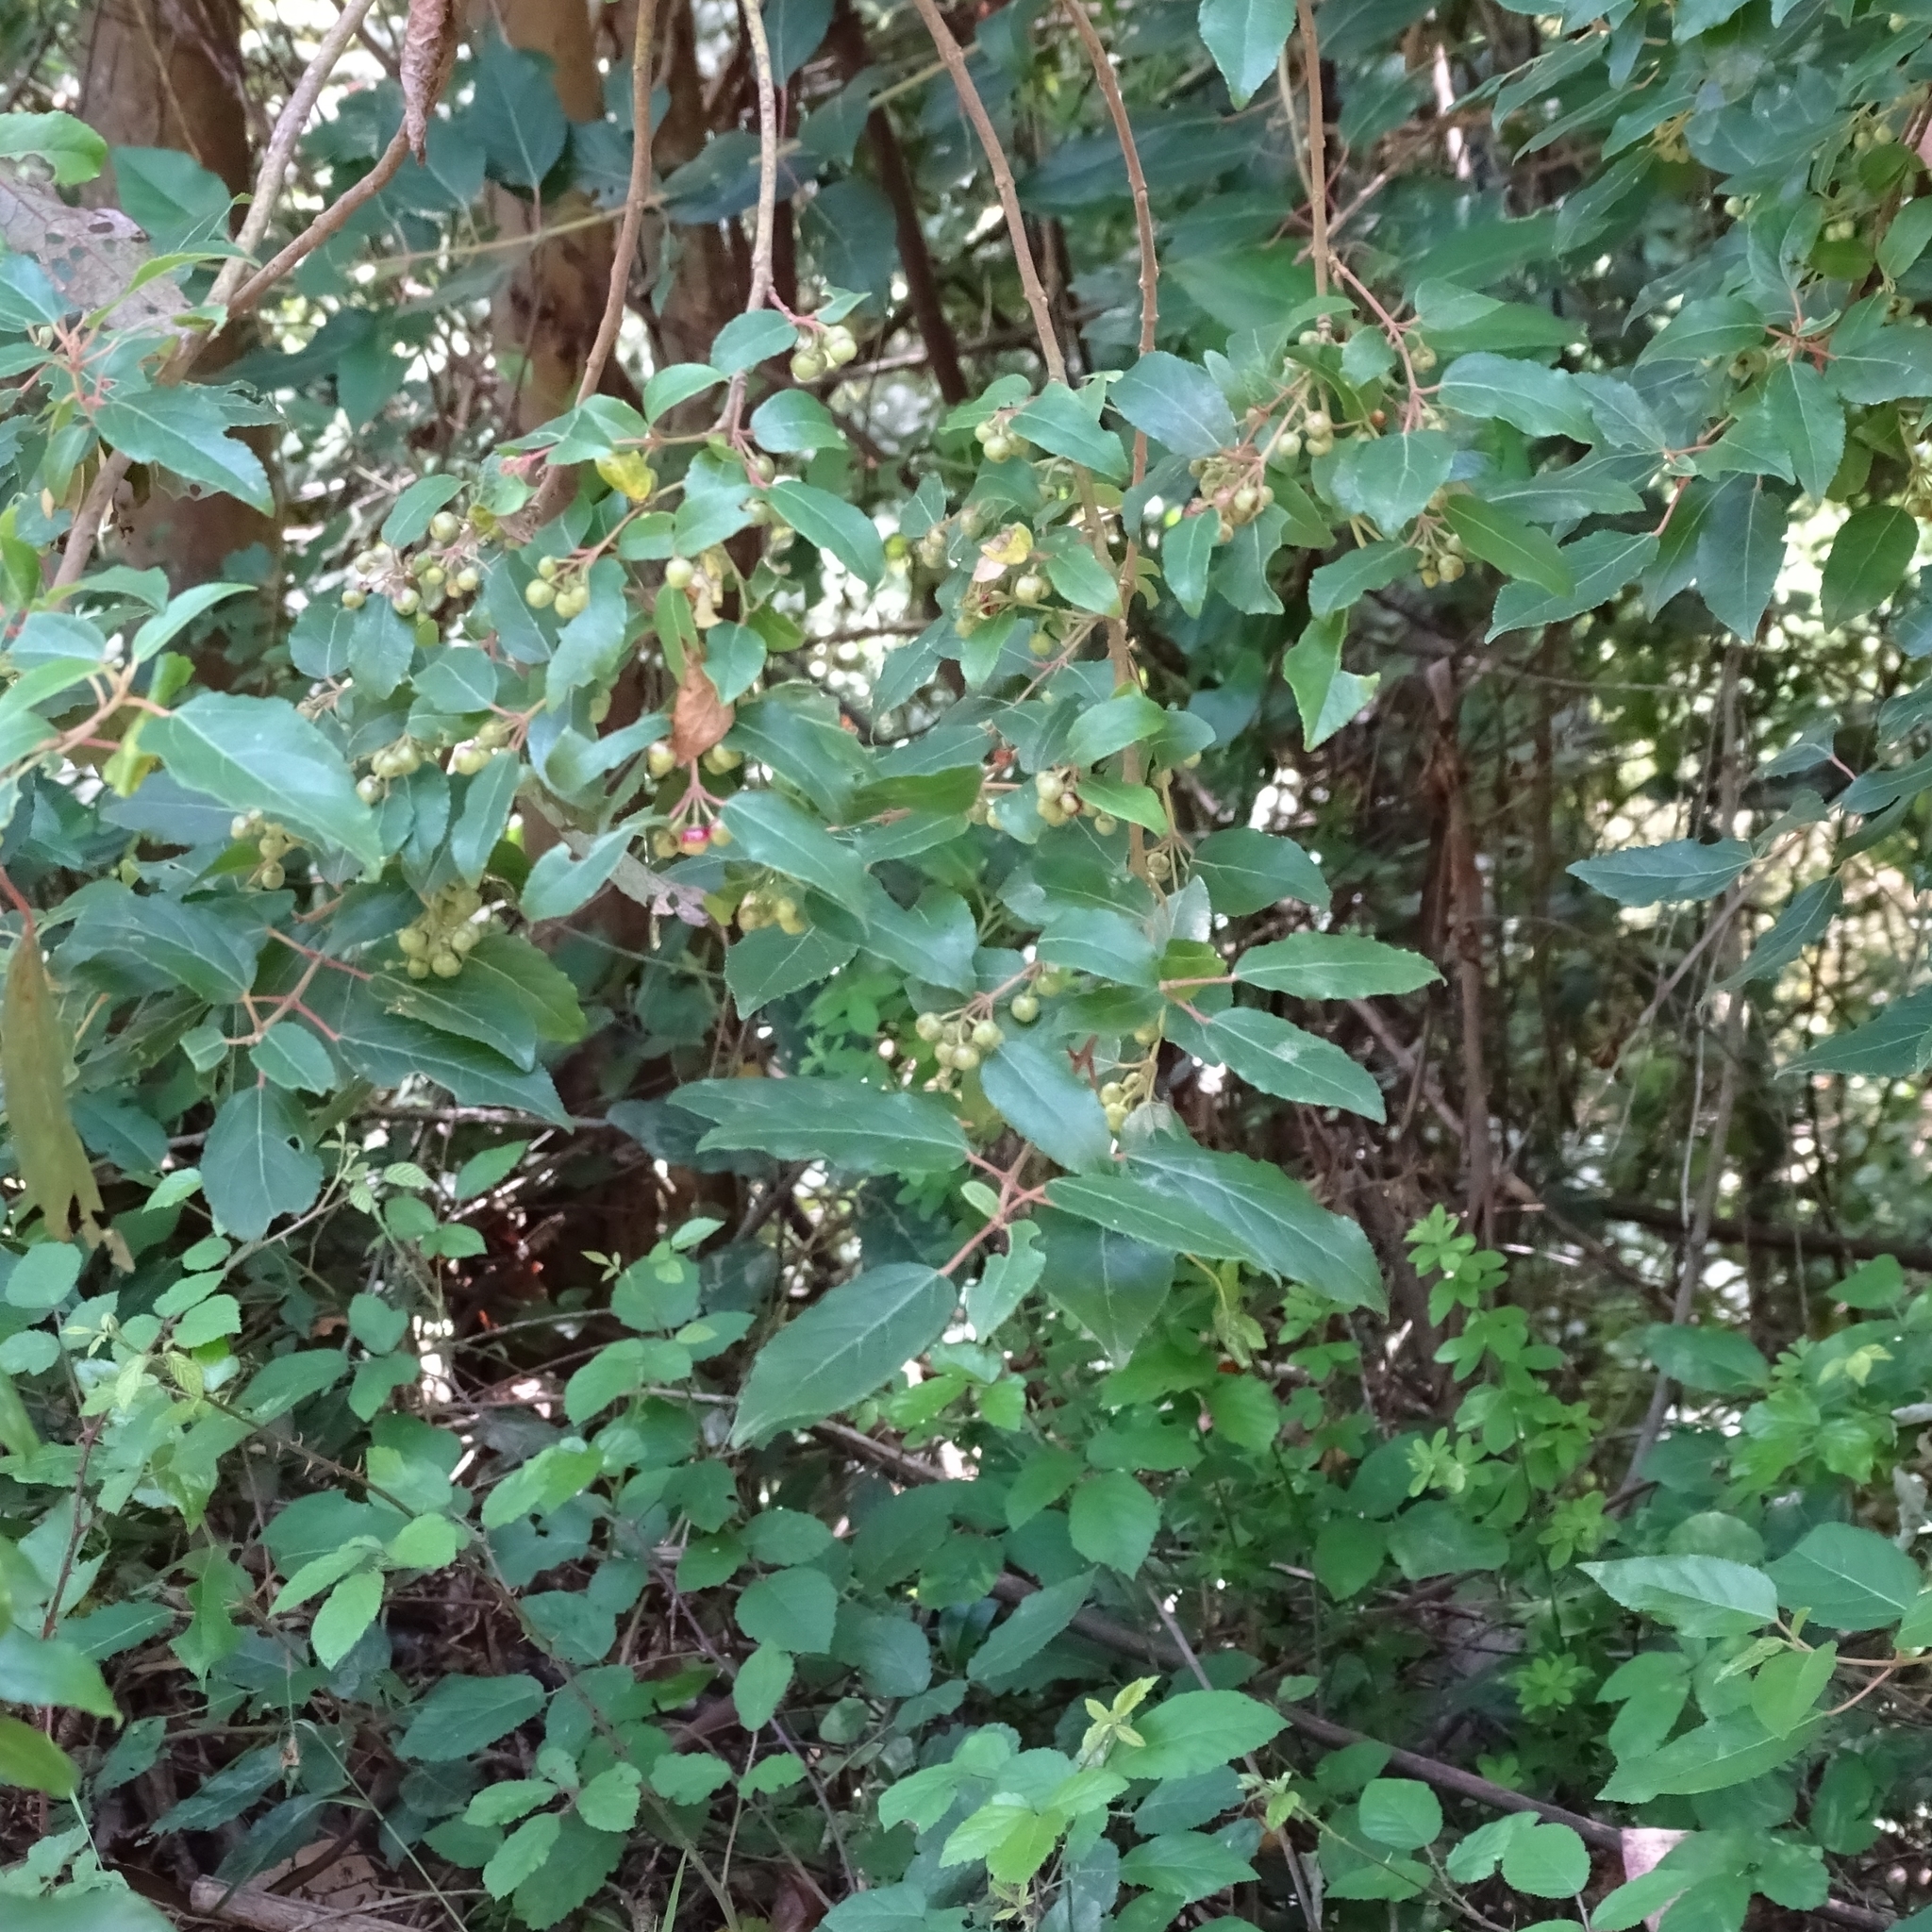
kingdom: Plantae
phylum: Tracheophyta
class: Magnoliopsida
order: Oxalidales
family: Elaeocarpaceae
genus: Aristotelia
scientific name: Aristotelia chilensis
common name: Maquei
